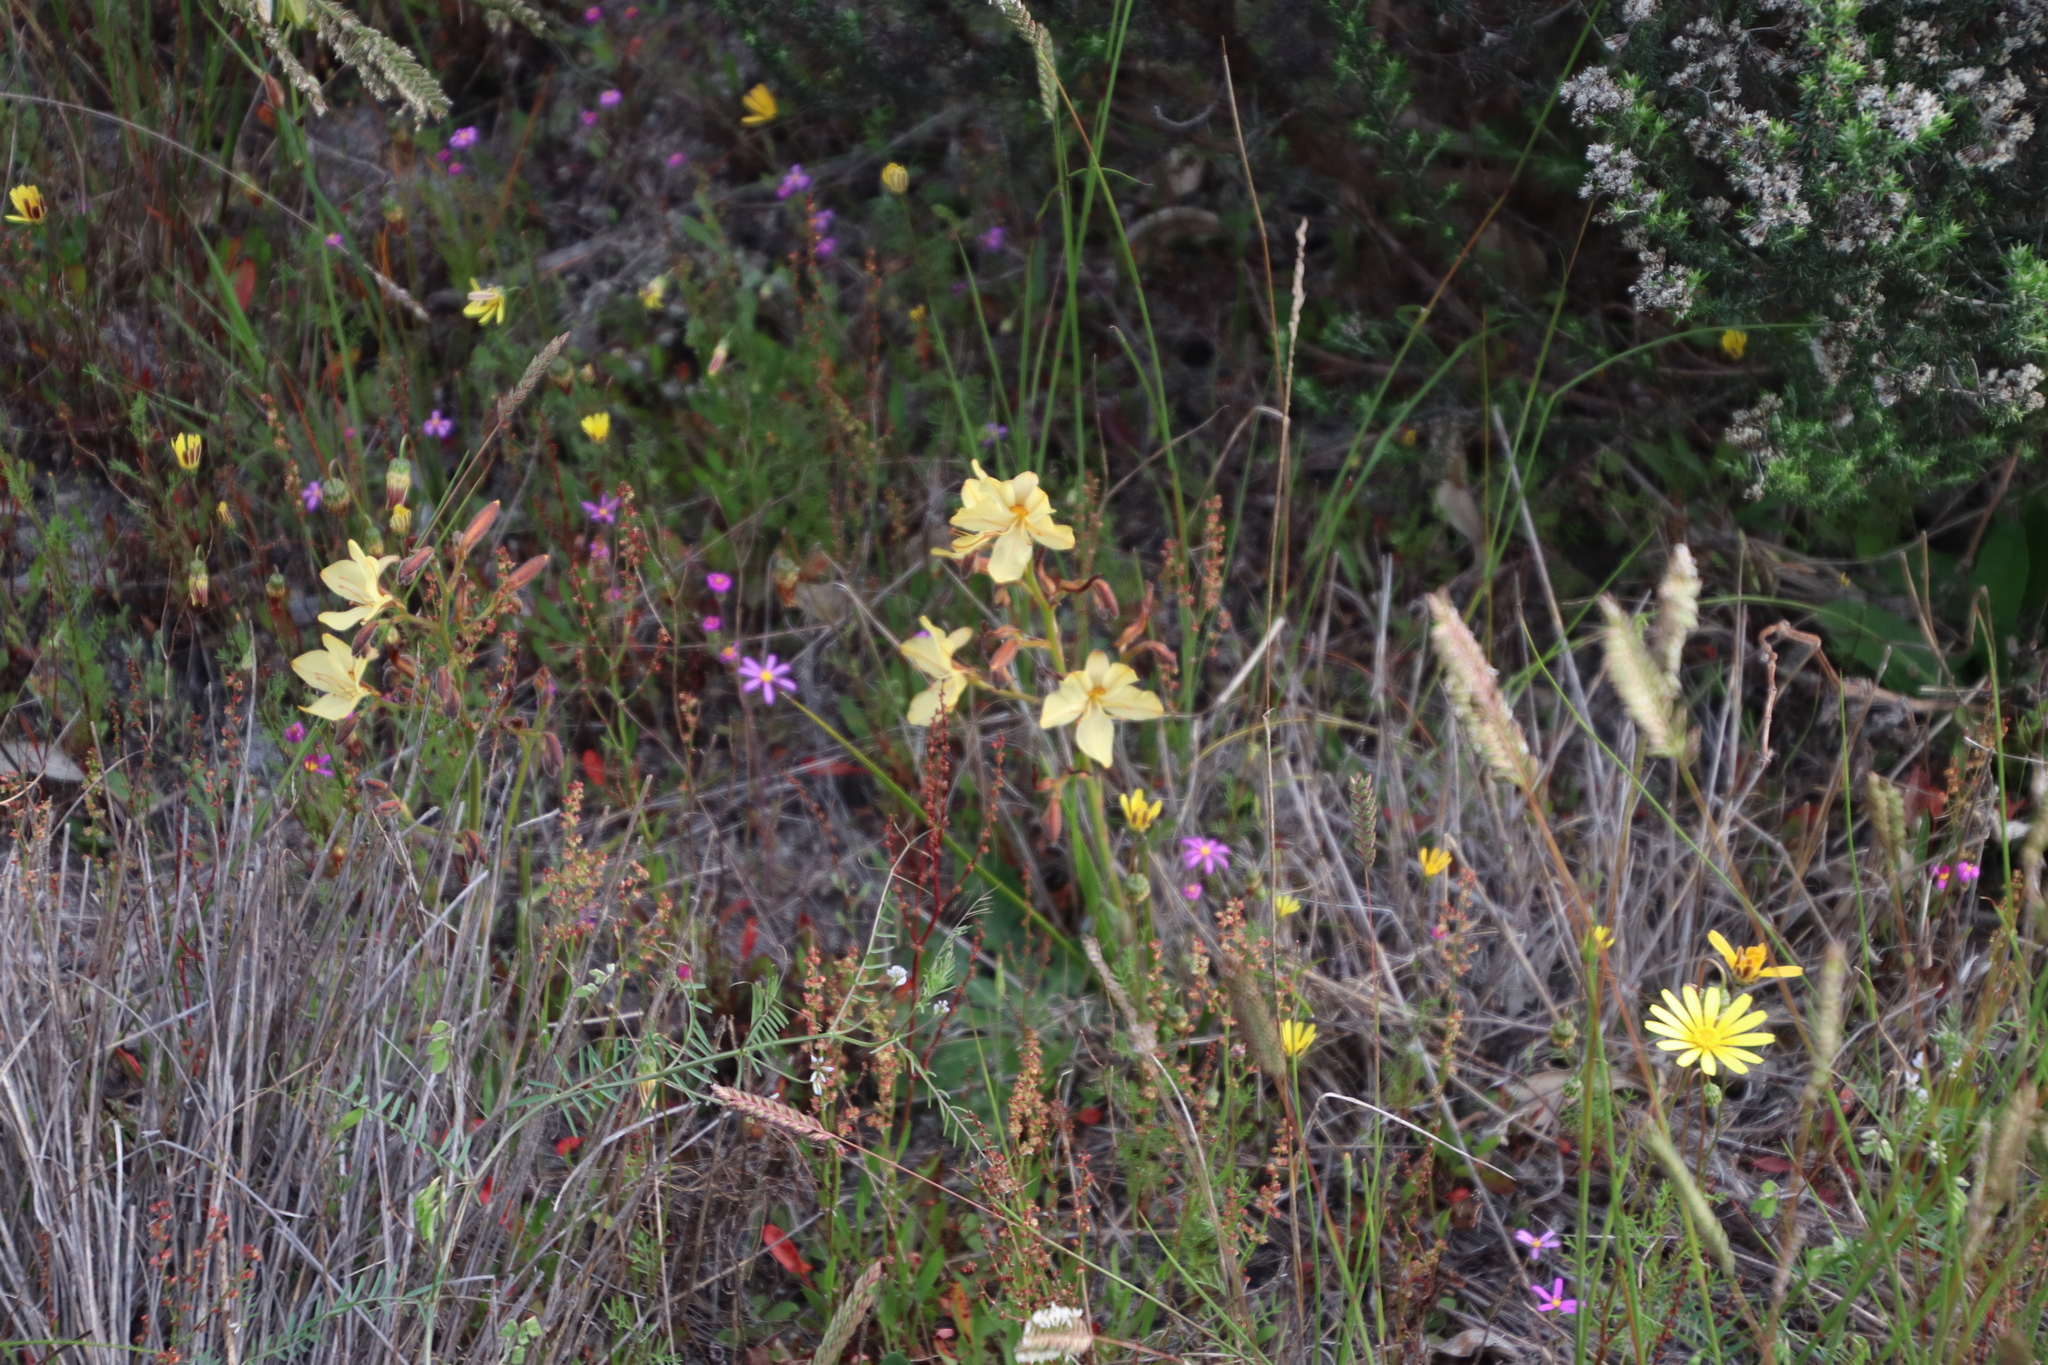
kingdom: Plantae
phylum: Tracheophyta
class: Liliopsida
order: Commelinales
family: Haemodoraceae
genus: Wachendorfia
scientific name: Wachendorfia paniculata
